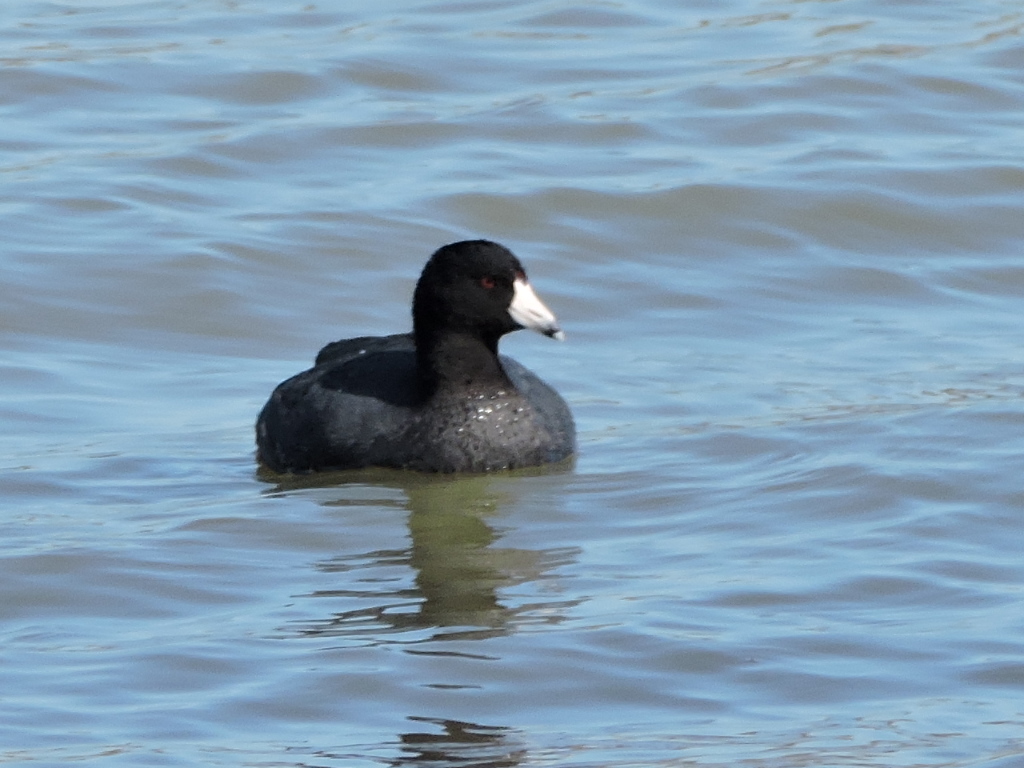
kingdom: Animalia
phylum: Chordata
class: Aves
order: Gruiformes
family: Rallidae
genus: Fulica
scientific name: Fulica americana
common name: American coot
